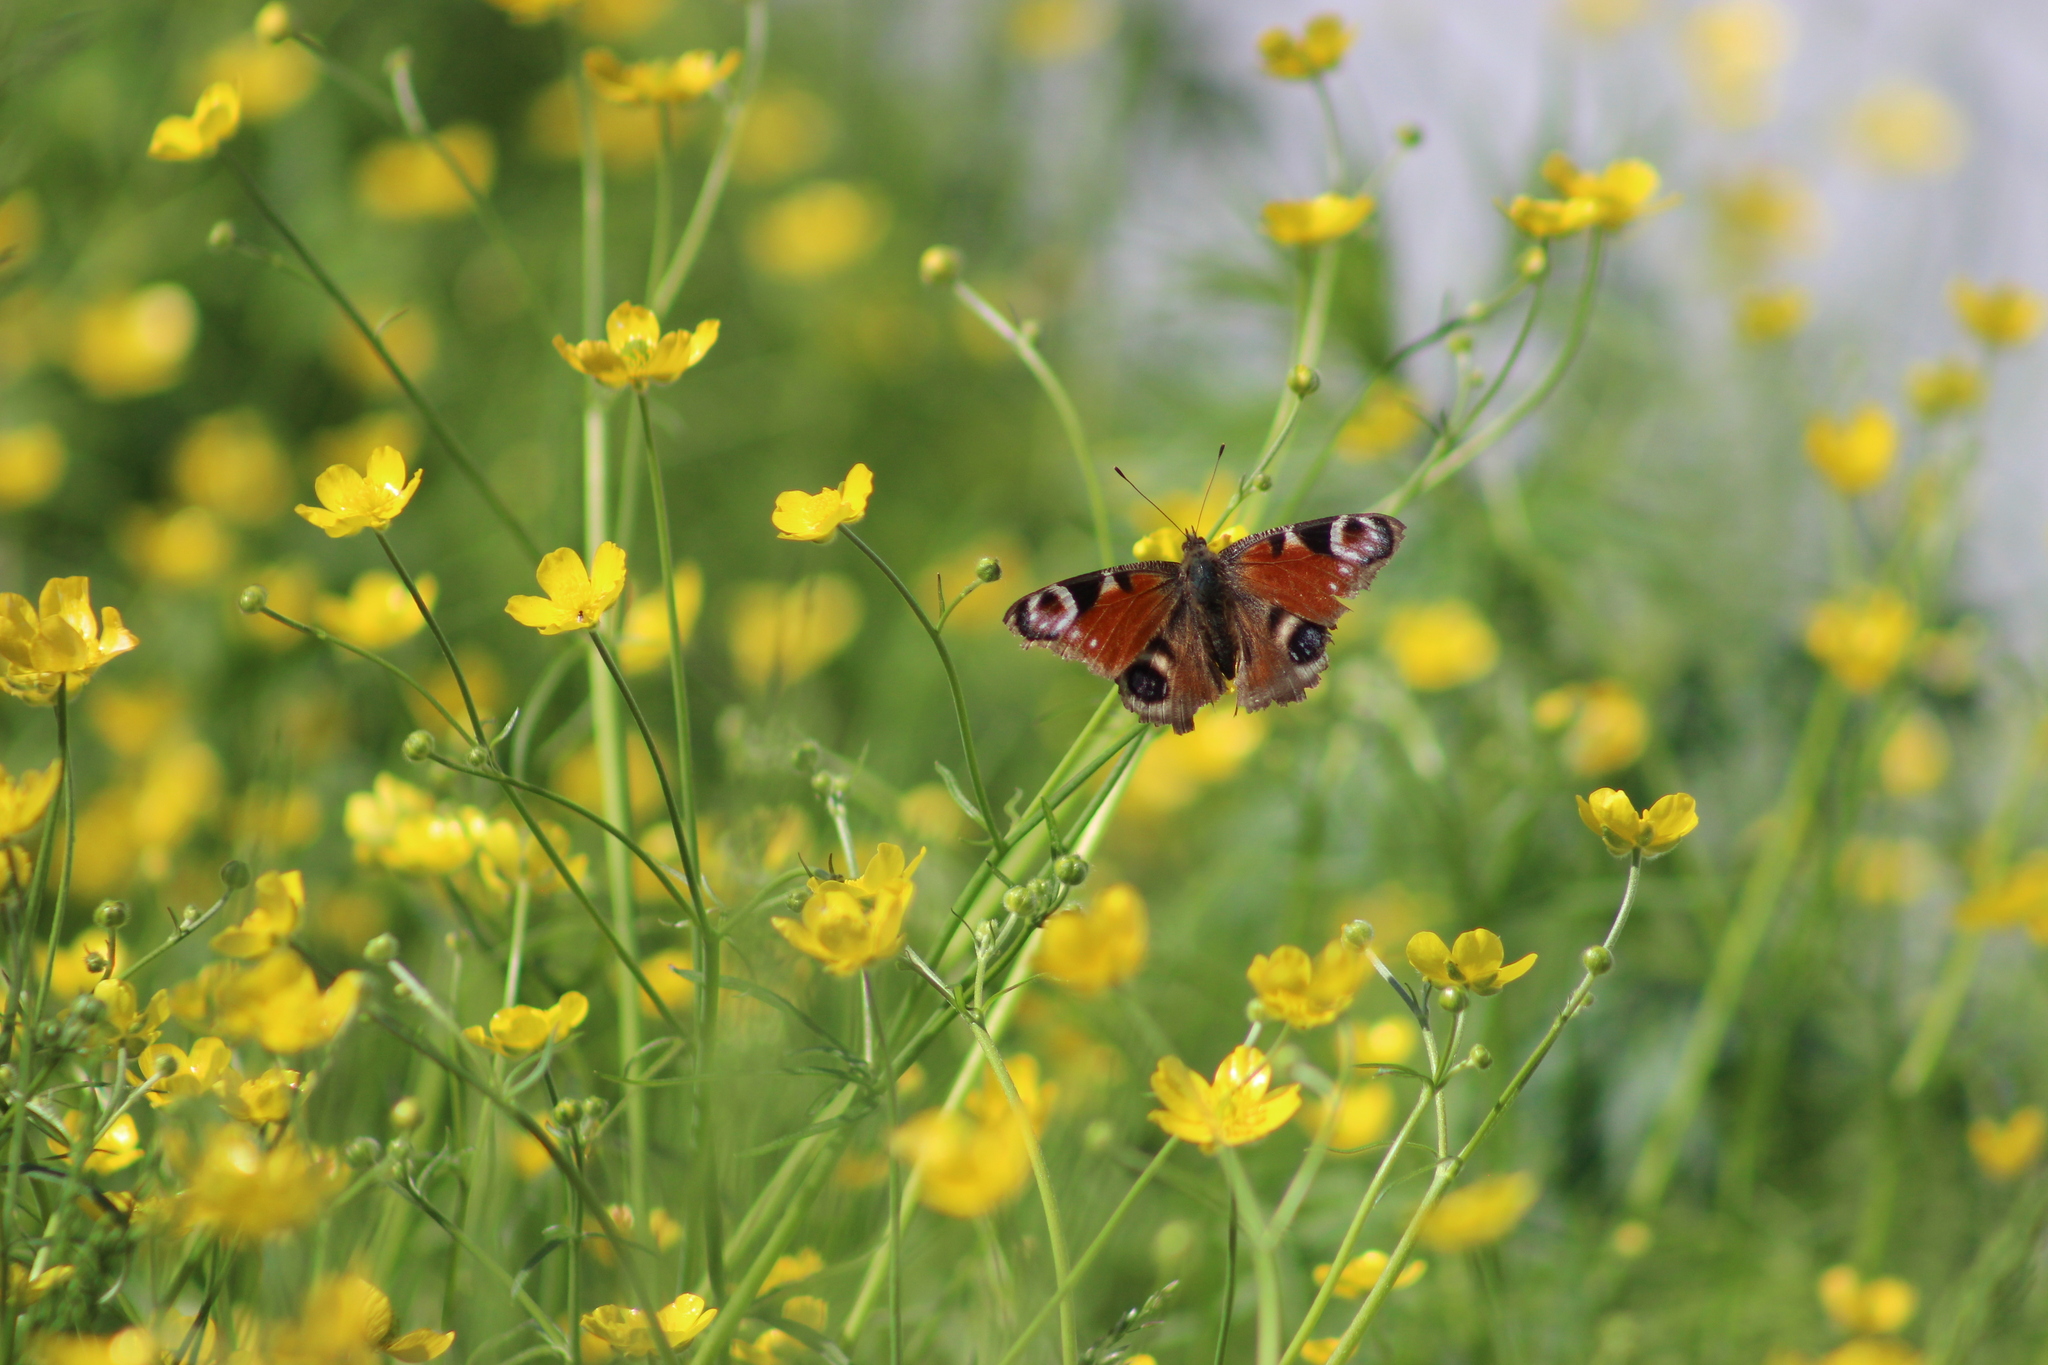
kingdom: Animalia
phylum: Arthropoda
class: Insecta
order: Lepidoptera
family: Nymphalidae
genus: Aglais
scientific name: Aglais io
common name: Peacock
